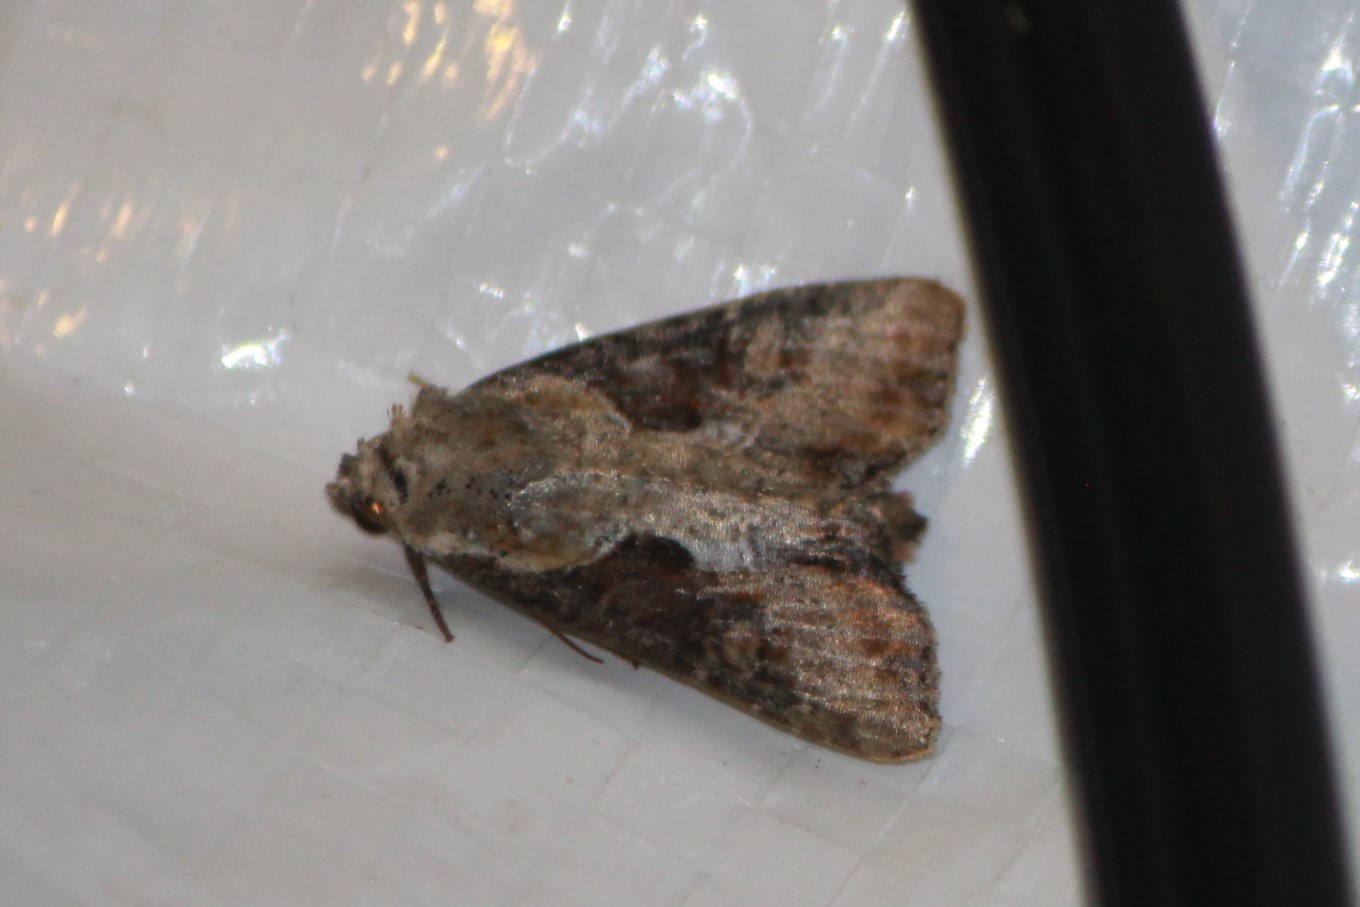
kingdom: Animalia
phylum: Arthropoda
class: Insecta
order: Lepidoptera
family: Noctuidae
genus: Lateroligia
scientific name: Lateroligia ophiogramma
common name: Double lobed
